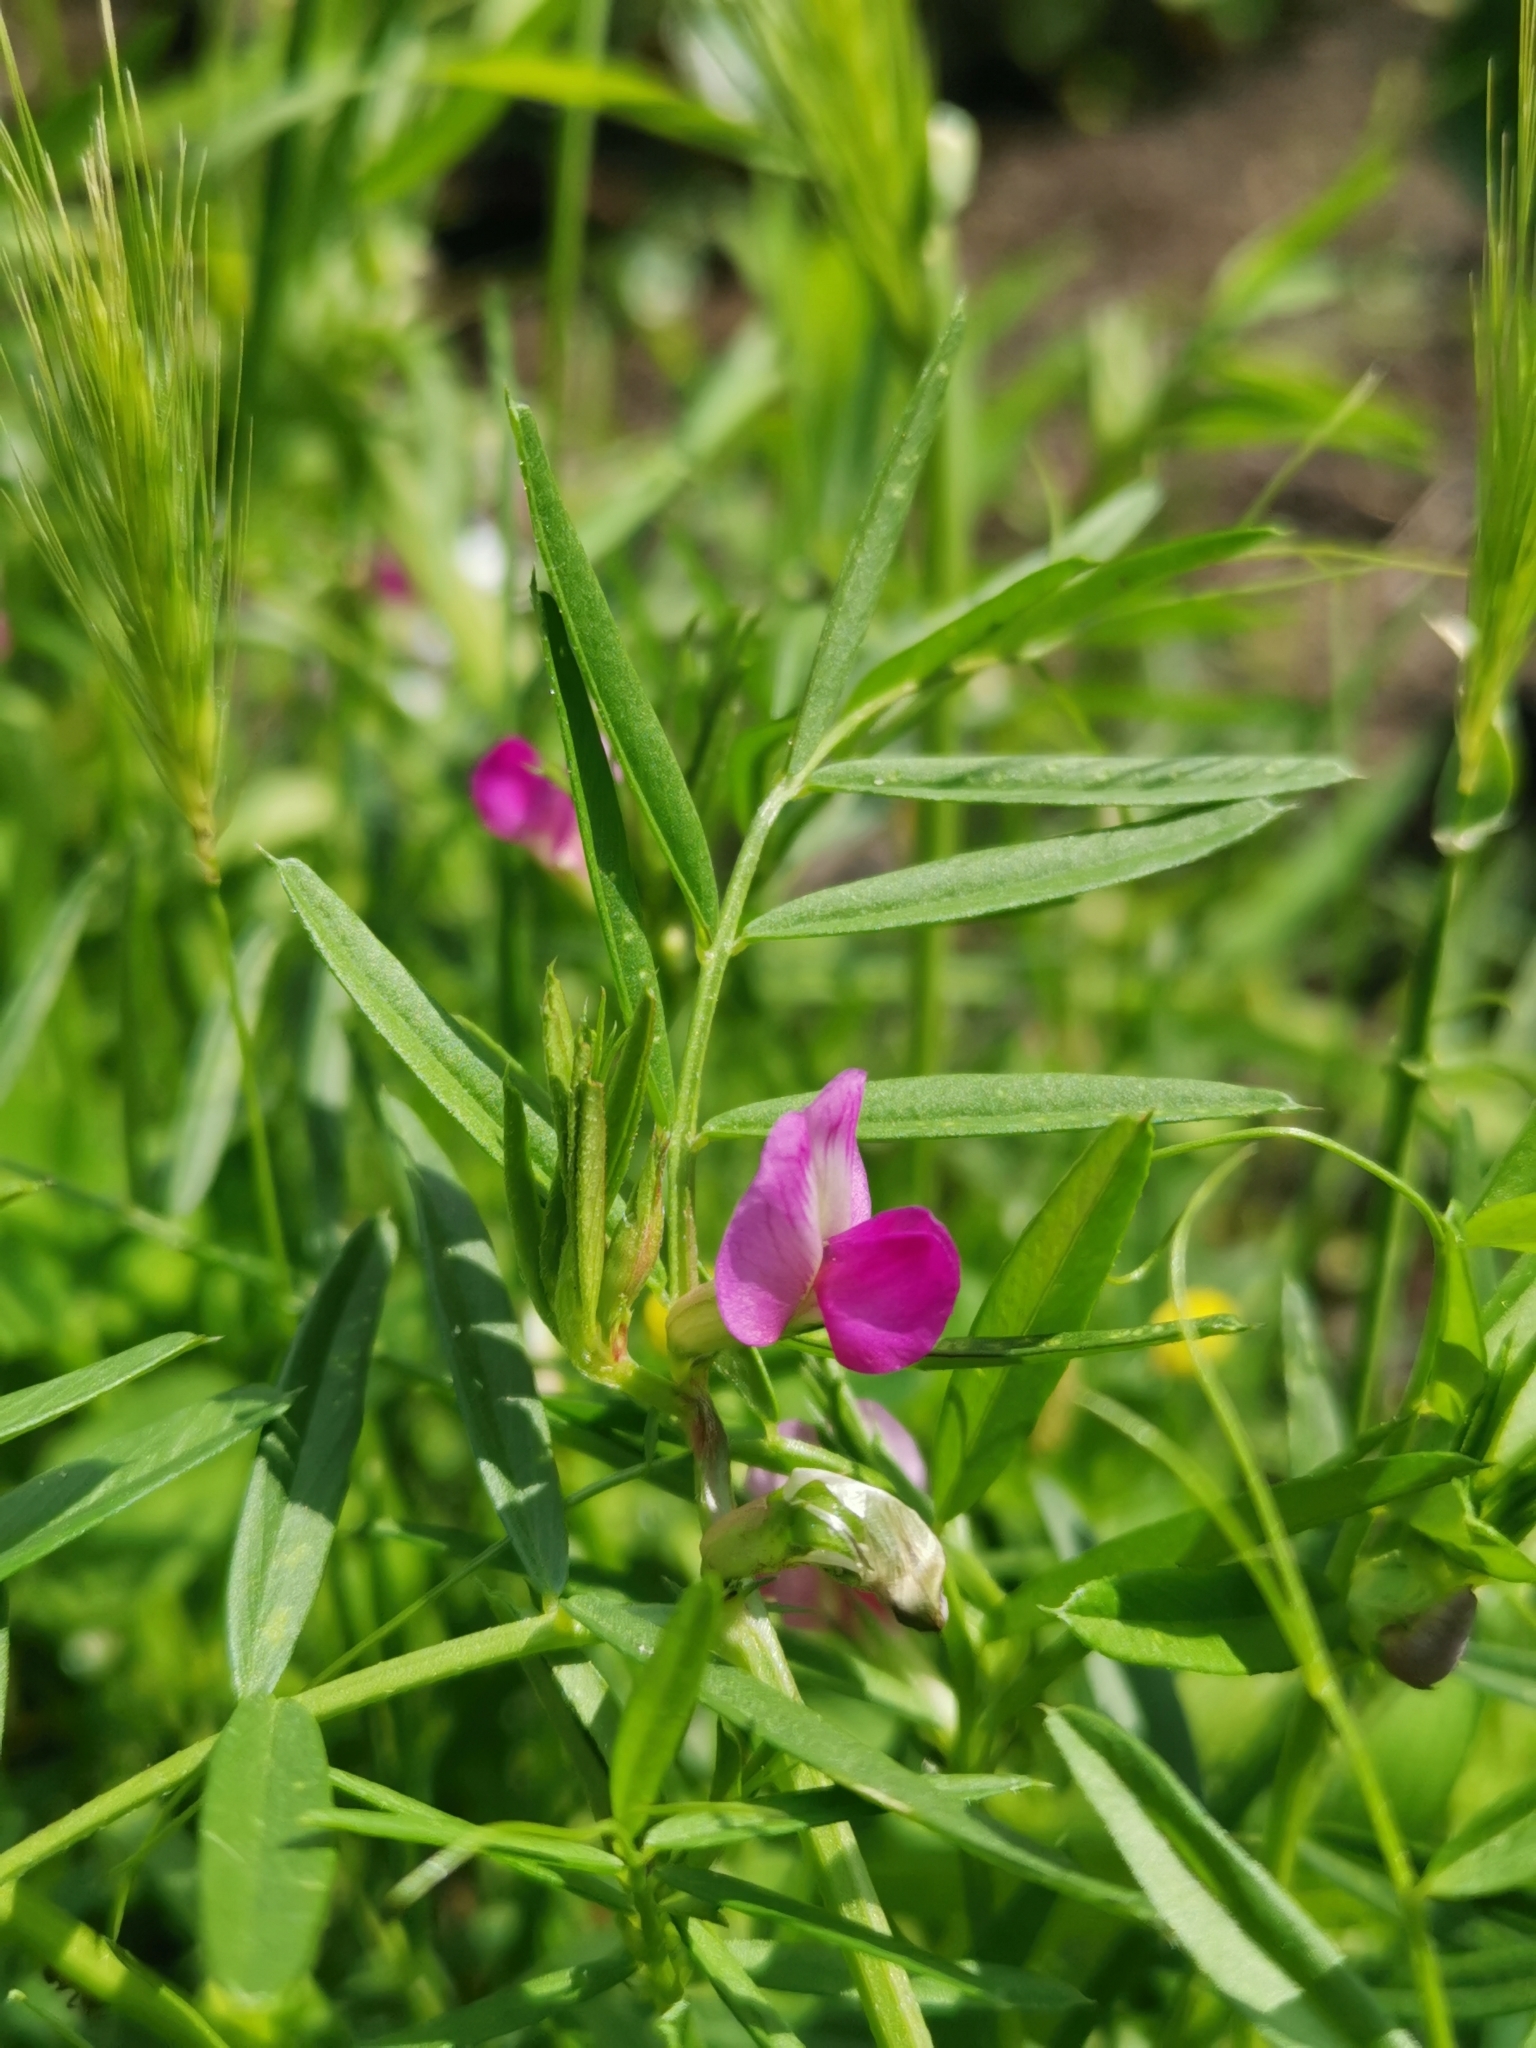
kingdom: Plantae
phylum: Tracheophyta
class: Magnoliopsida
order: Fabales
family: Fabaceae
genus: Vicia
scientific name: Vicia sativa
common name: Garden vetch
